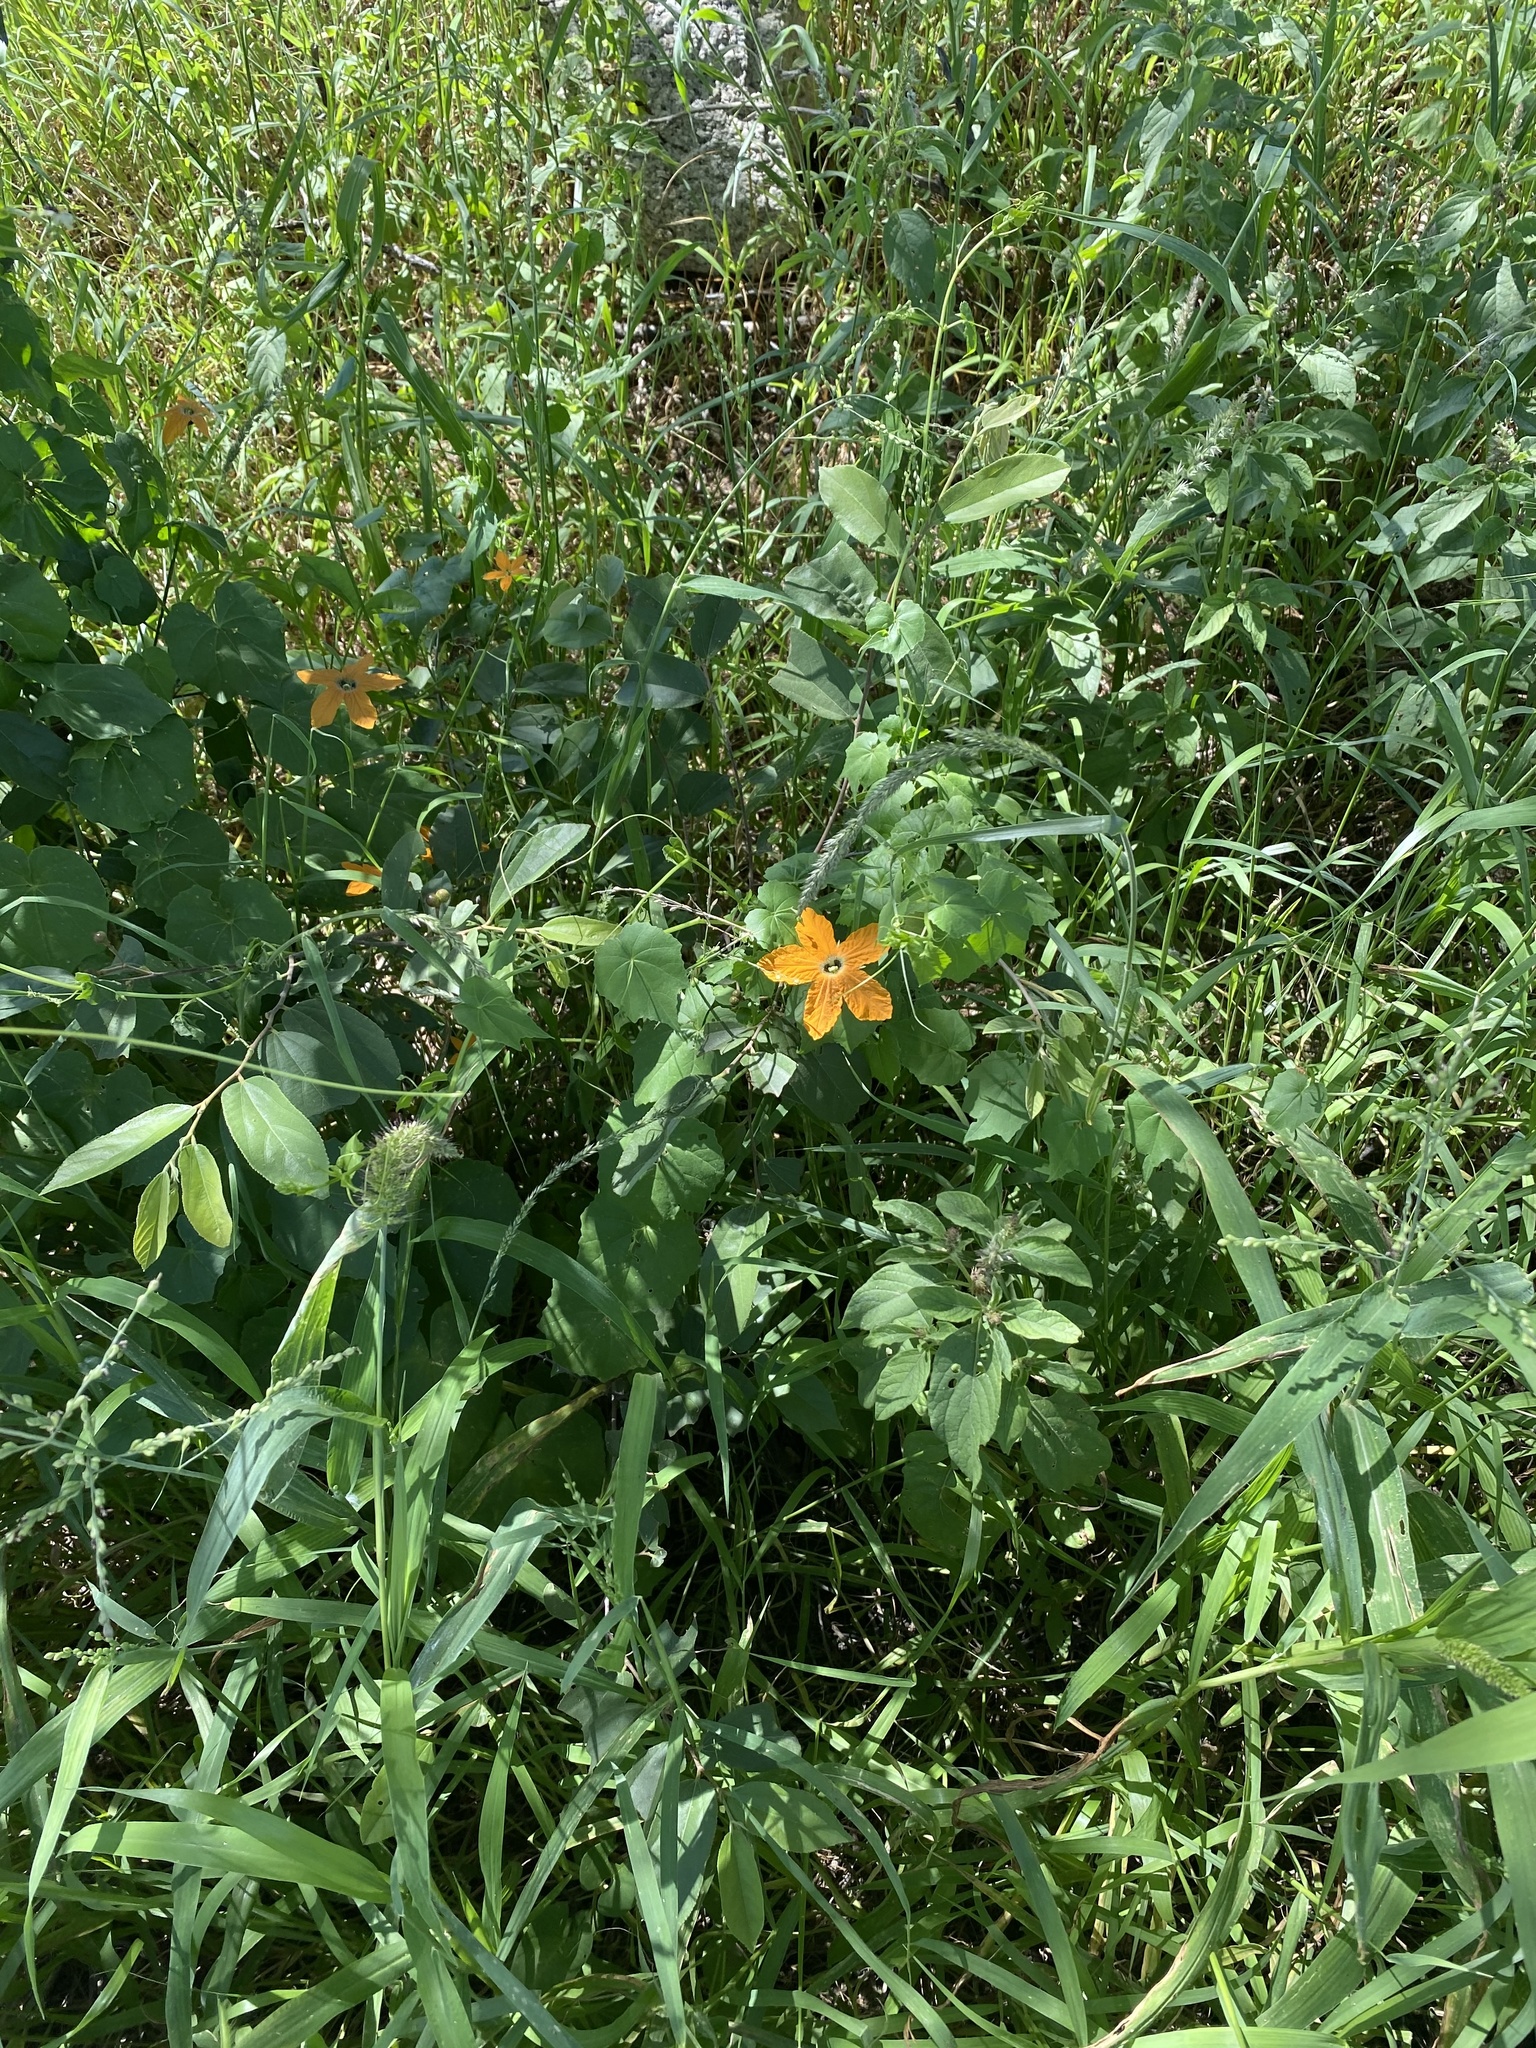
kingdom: Plantae
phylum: Tracheophyta
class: Magnoliopsida
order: Cucurbitales
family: Cucurbitaceae
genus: Momordica
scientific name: Momordica humilis
